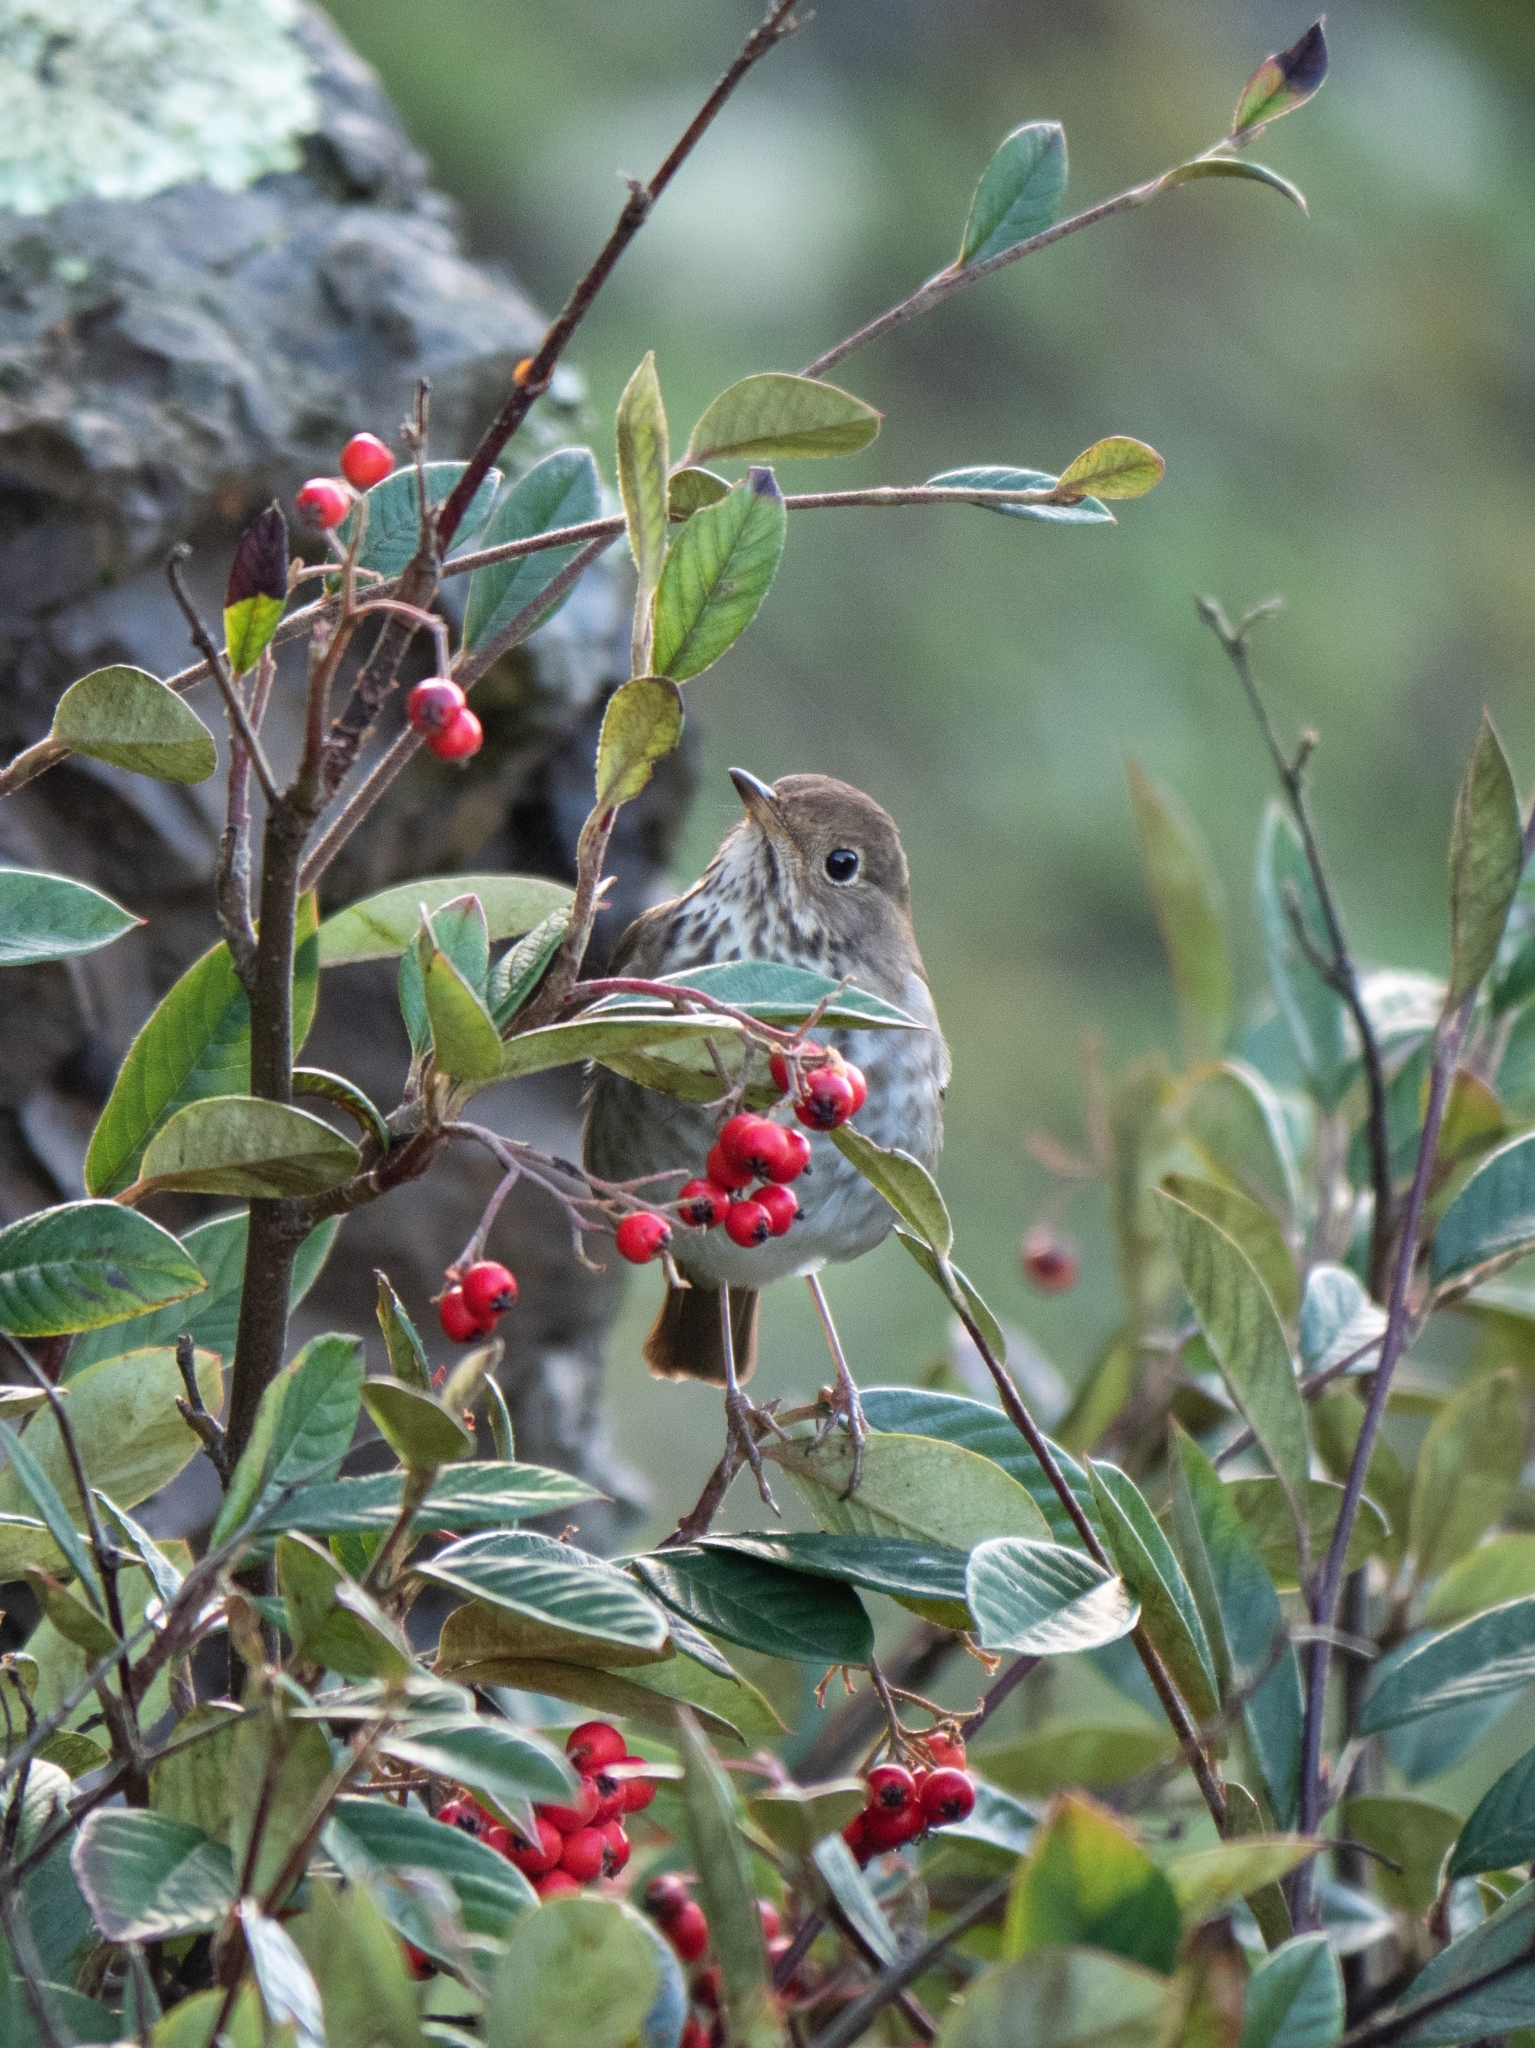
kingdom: Animalia
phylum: Chordata
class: Aves
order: Passeriformes
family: Turdidae
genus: Catharus
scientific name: Catharus guttatus
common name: Hermit thrush
